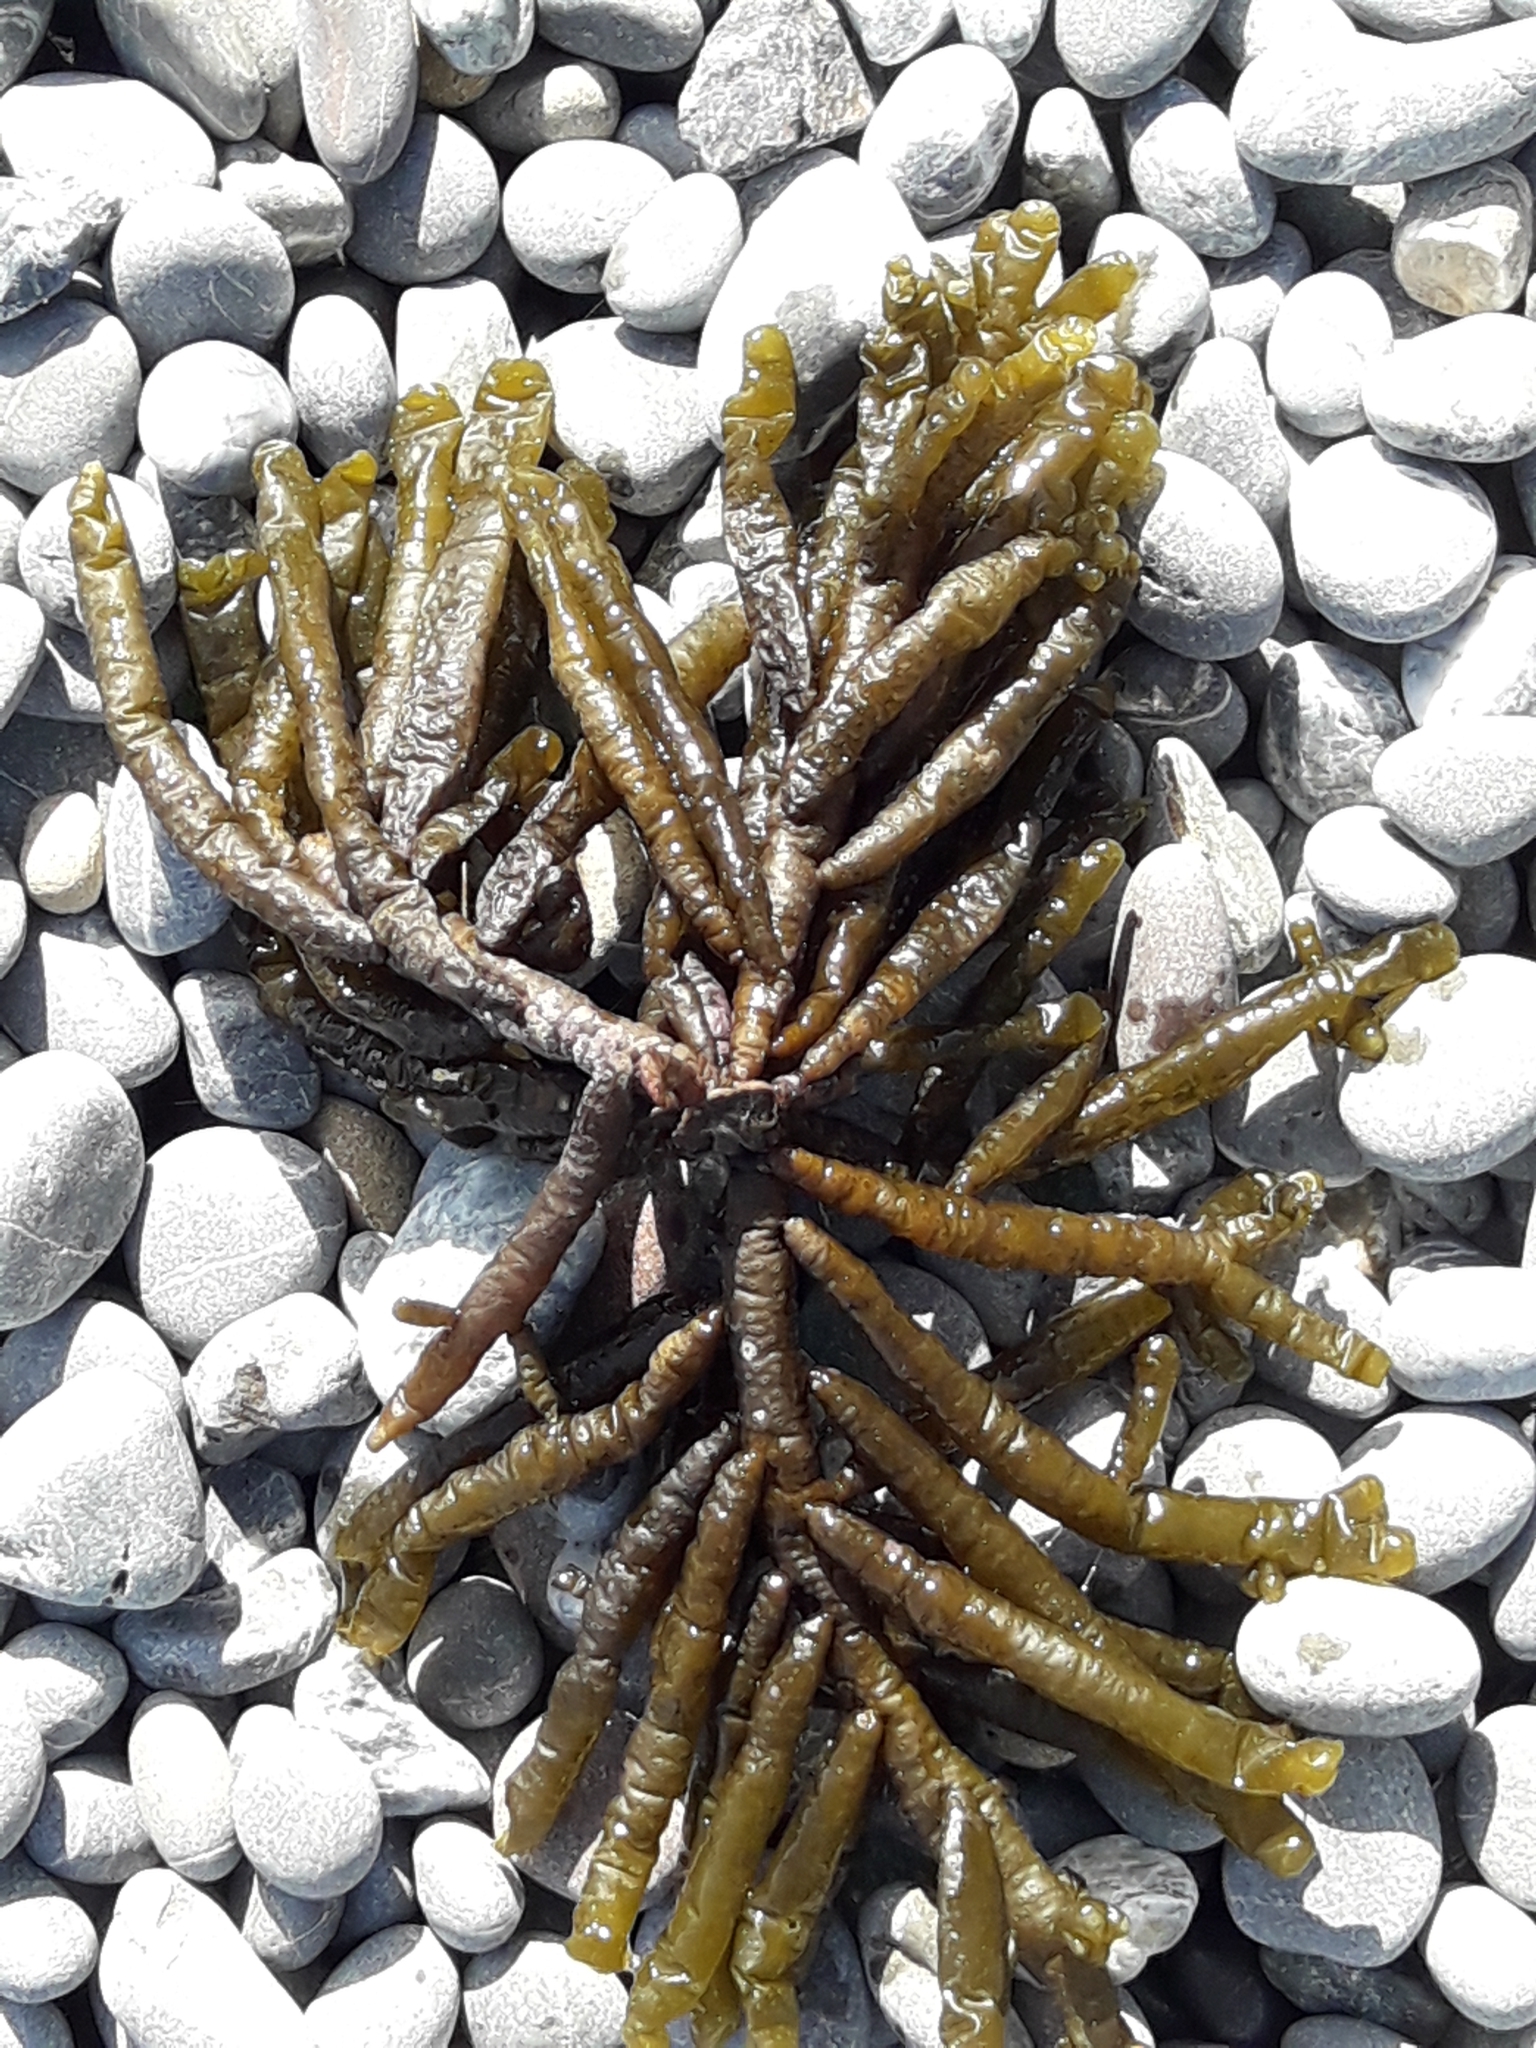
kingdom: Chromista
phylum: Ochrophyta
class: Phaeophyceae
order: Scytothamnales
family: Splachnidiaceae
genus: Splachnidium
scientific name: Splachnidium rugosum
